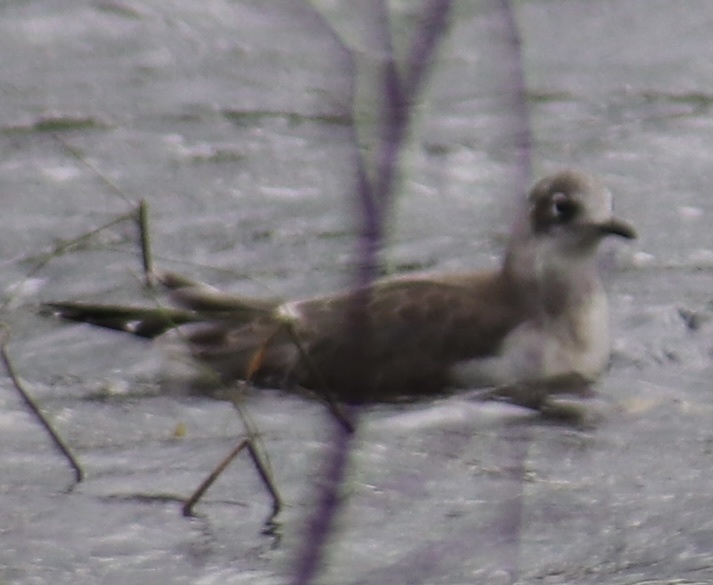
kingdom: Animalia
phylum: Chordata
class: Aves
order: Charadriiformes
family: Laridae
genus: Leucophaeus
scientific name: Leucophaeus pipixcan
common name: Franklin's gull
